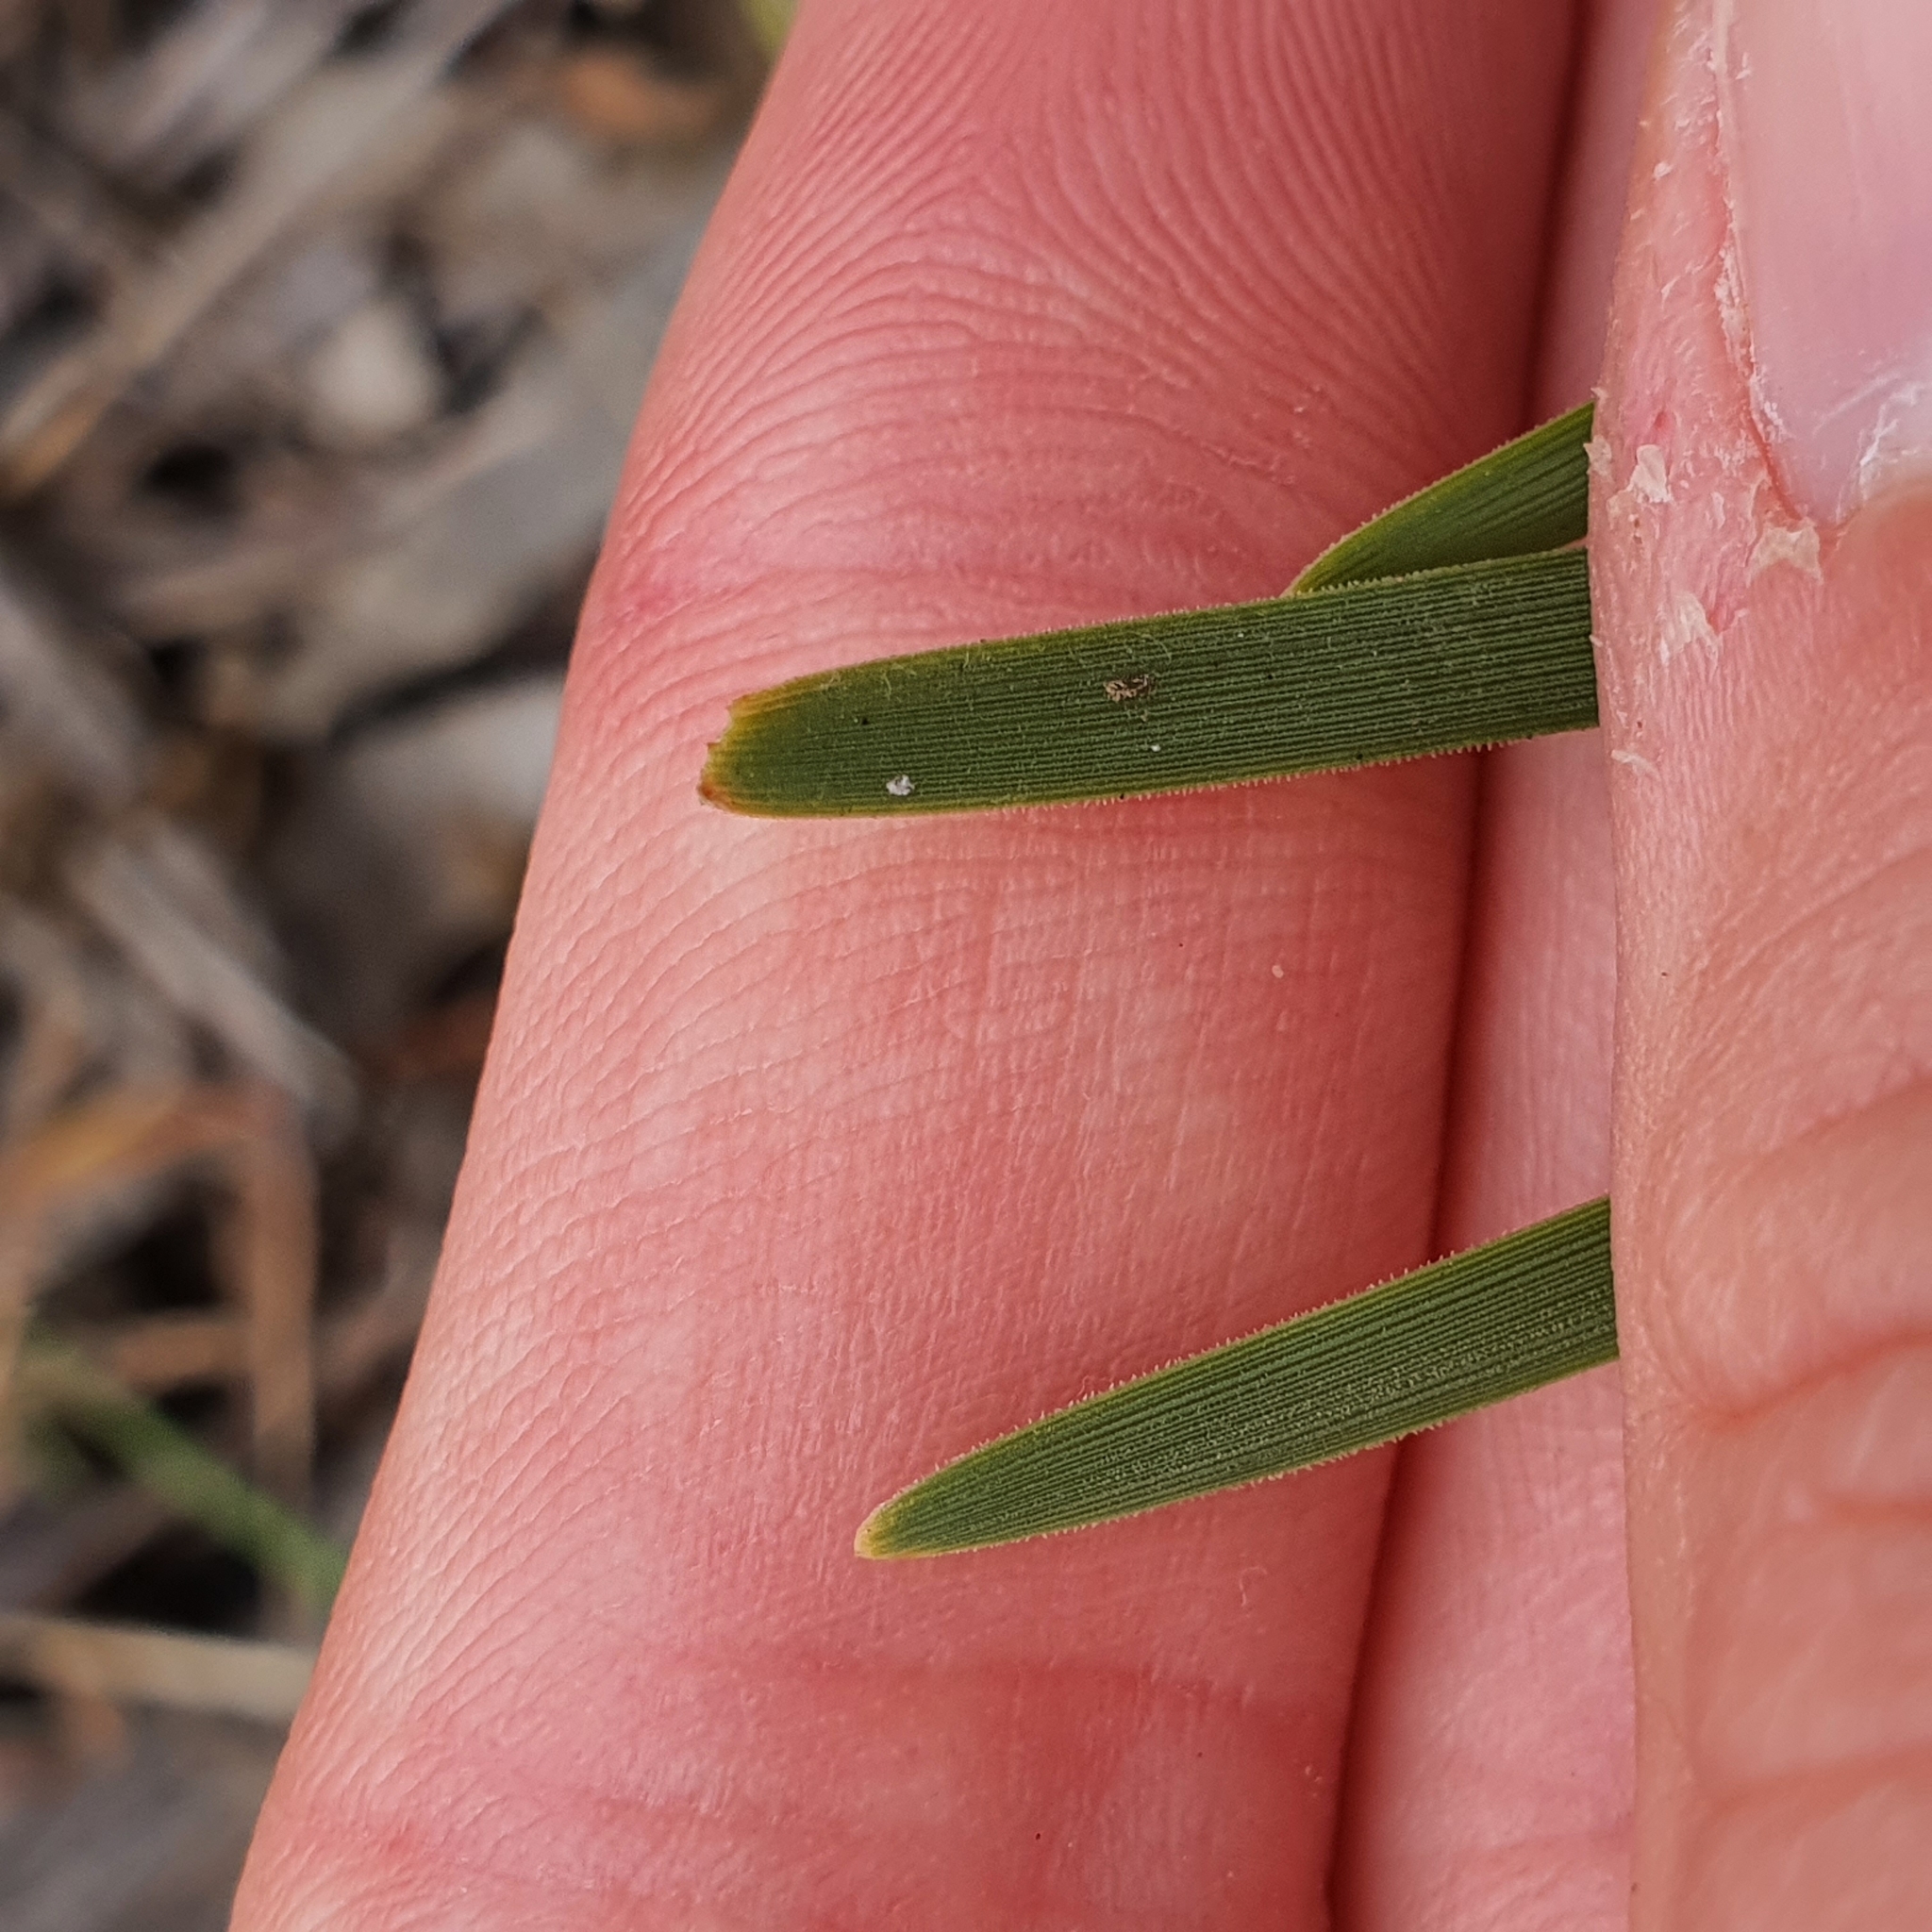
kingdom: Plantae
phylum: Tracheophyta
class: Liliopsida
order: Asparagales
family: Asparagaceae
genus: Lomandra
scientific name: Lomandra filiformis
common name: Wattle mat-rush
